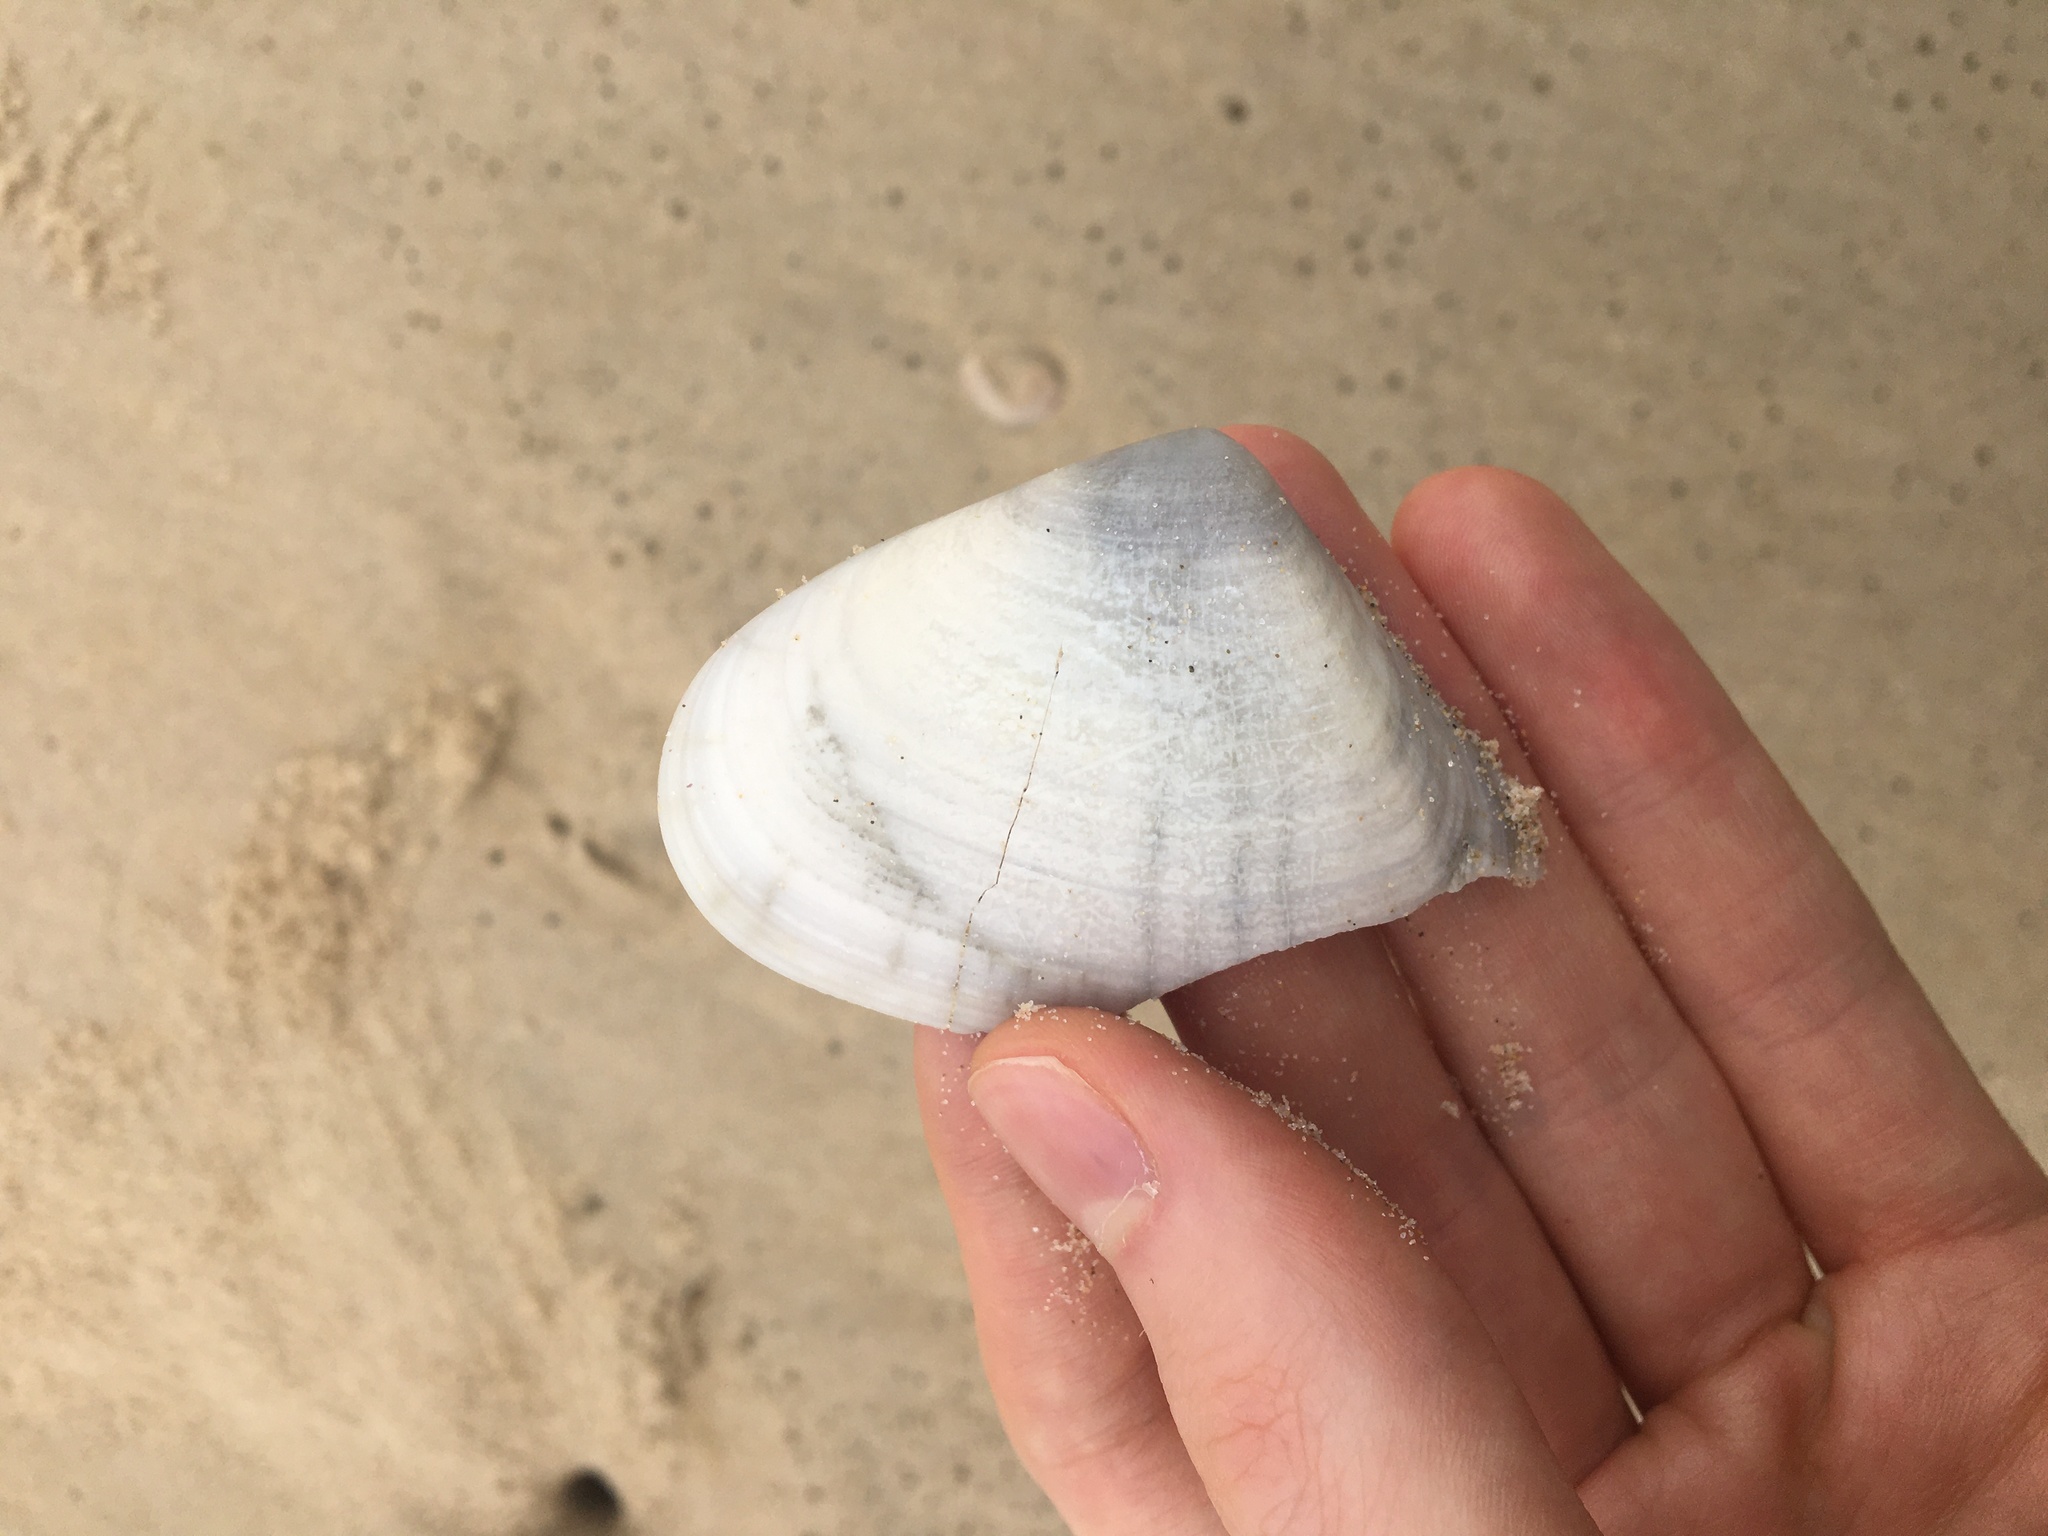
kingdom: Animalia
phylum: Mollusca
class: Bivalvia
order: Cardiida
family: Donacidae
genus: Latona
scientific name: Latona deltoides
